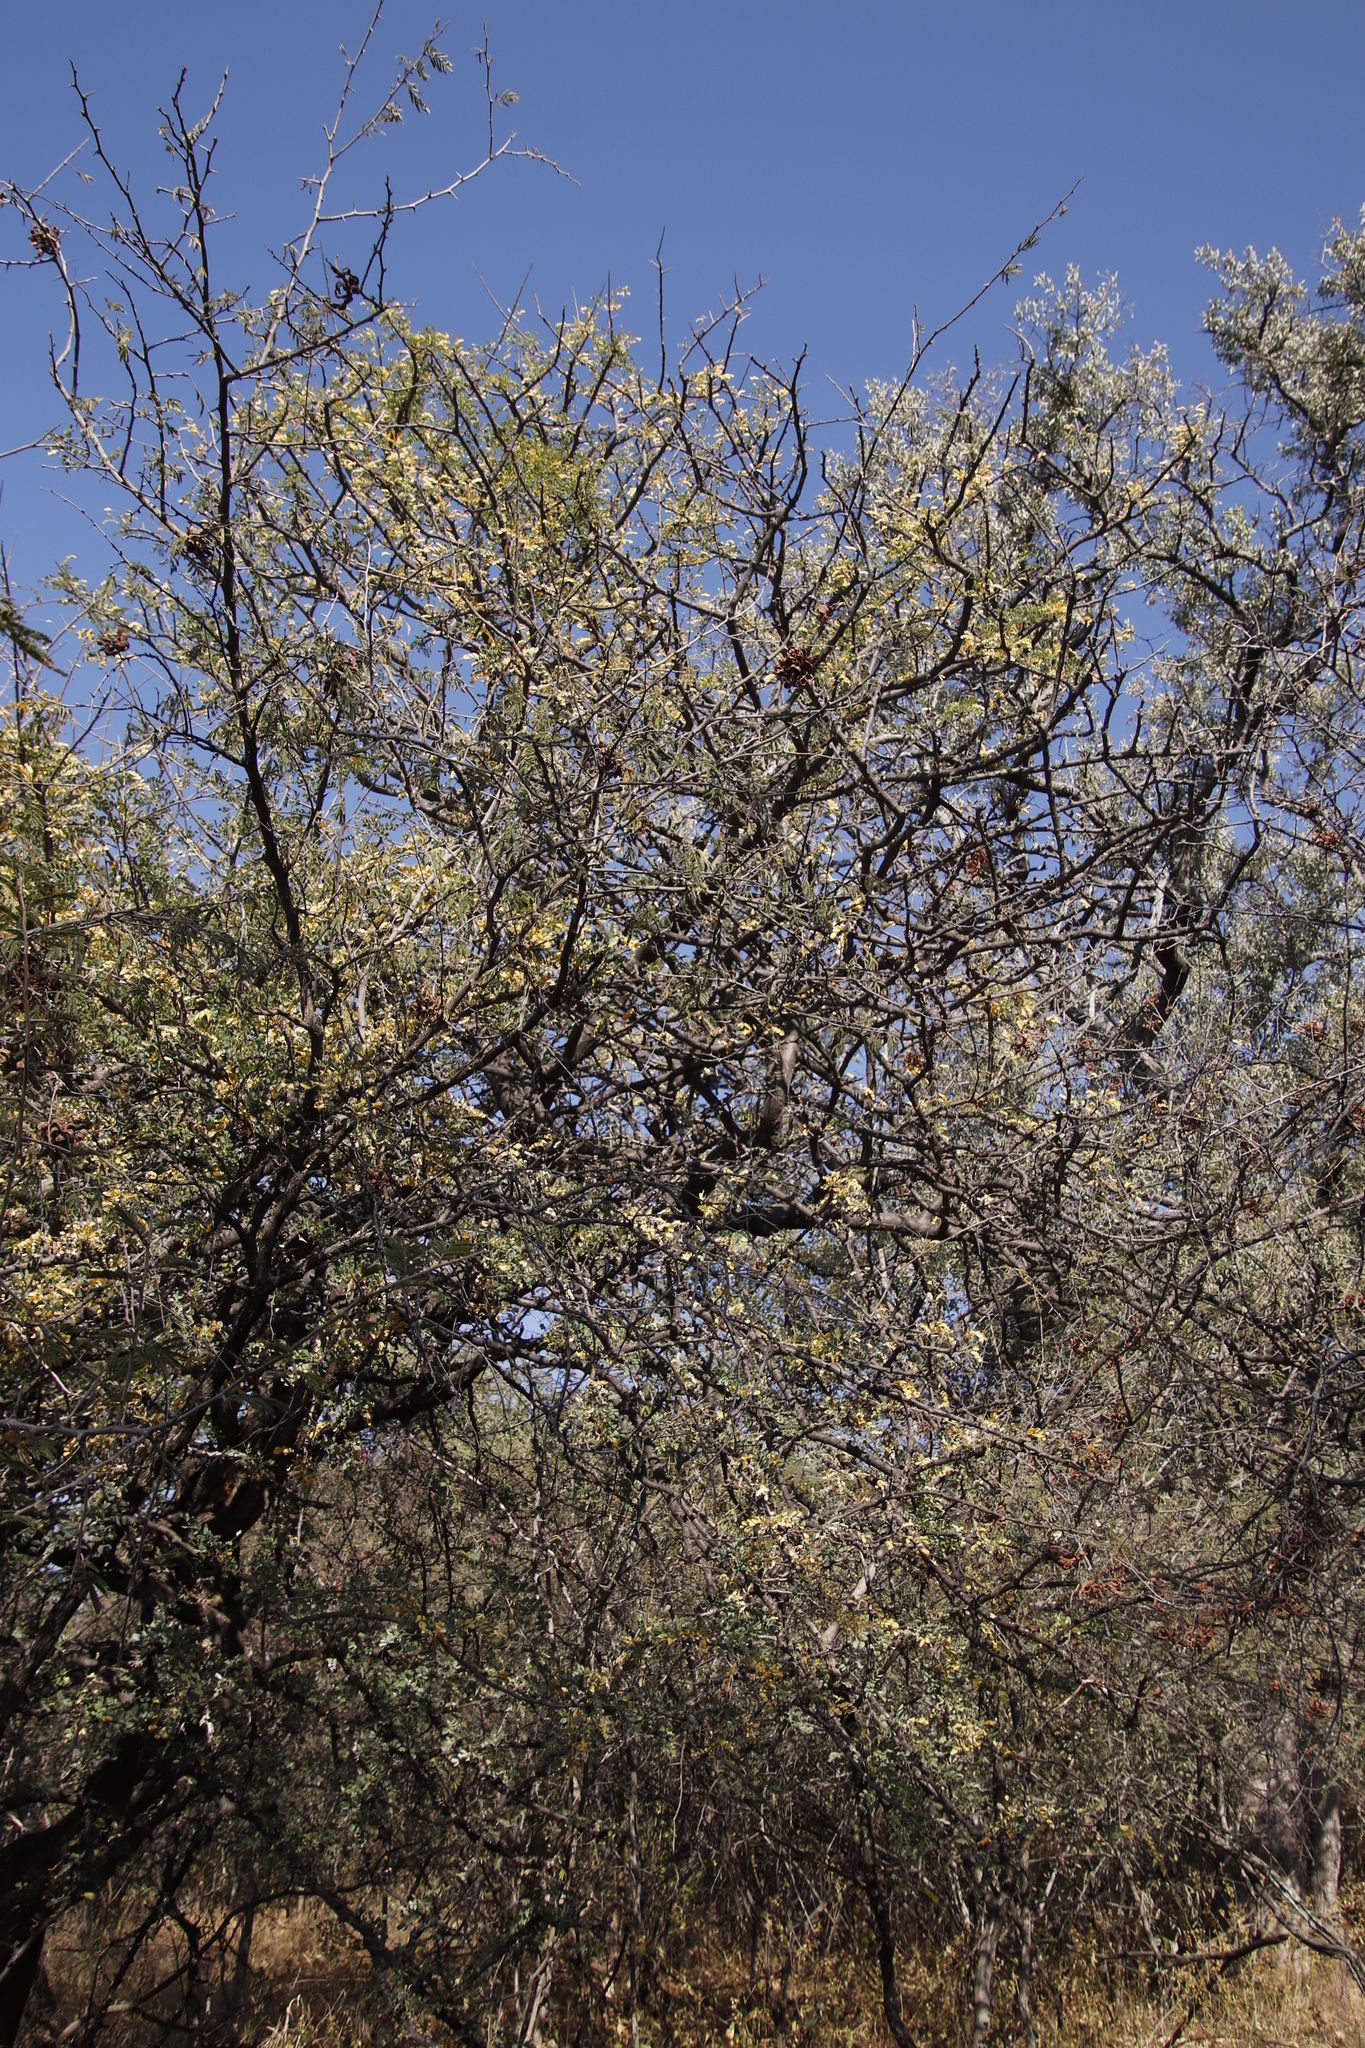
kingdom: Plantae
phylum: Tracheophyta
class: Magnoliopsida
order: Fabales
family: Fabaceae
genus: Dichrostachys
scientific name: Dichrostachys cinerea
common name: Sicklebush
